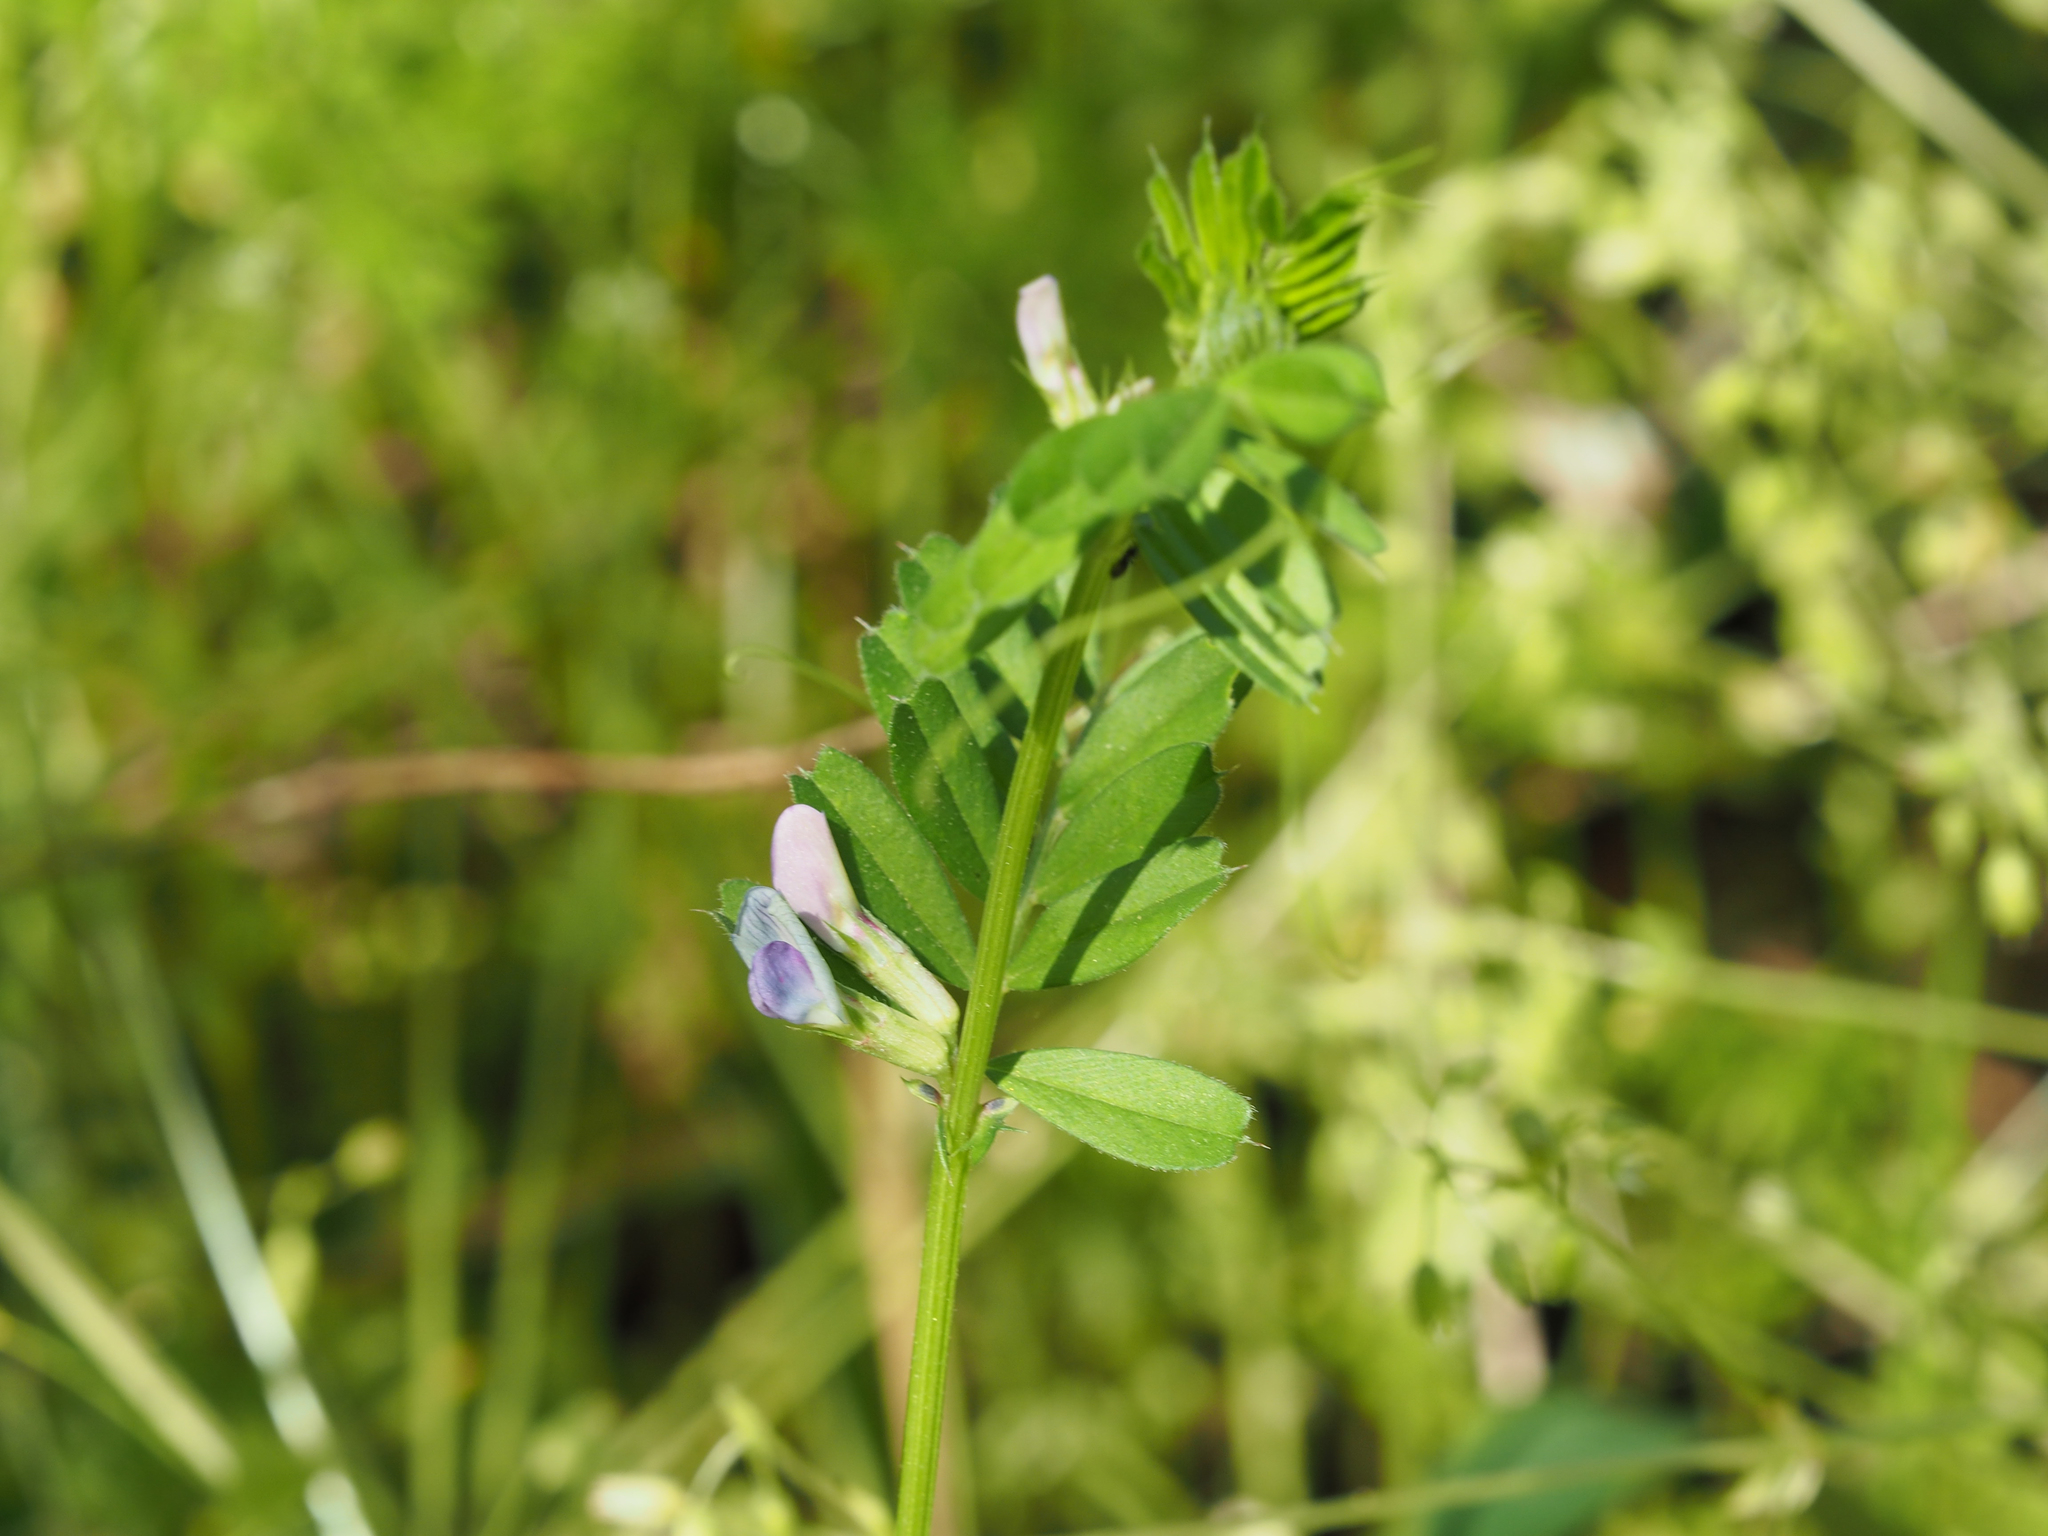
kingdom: Plantae
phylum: Tracheophyta
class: Magnoliopsida
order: Fabales
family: Fabaceae
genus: Vicia
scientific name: Vicia sativa
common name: Garden vetch
